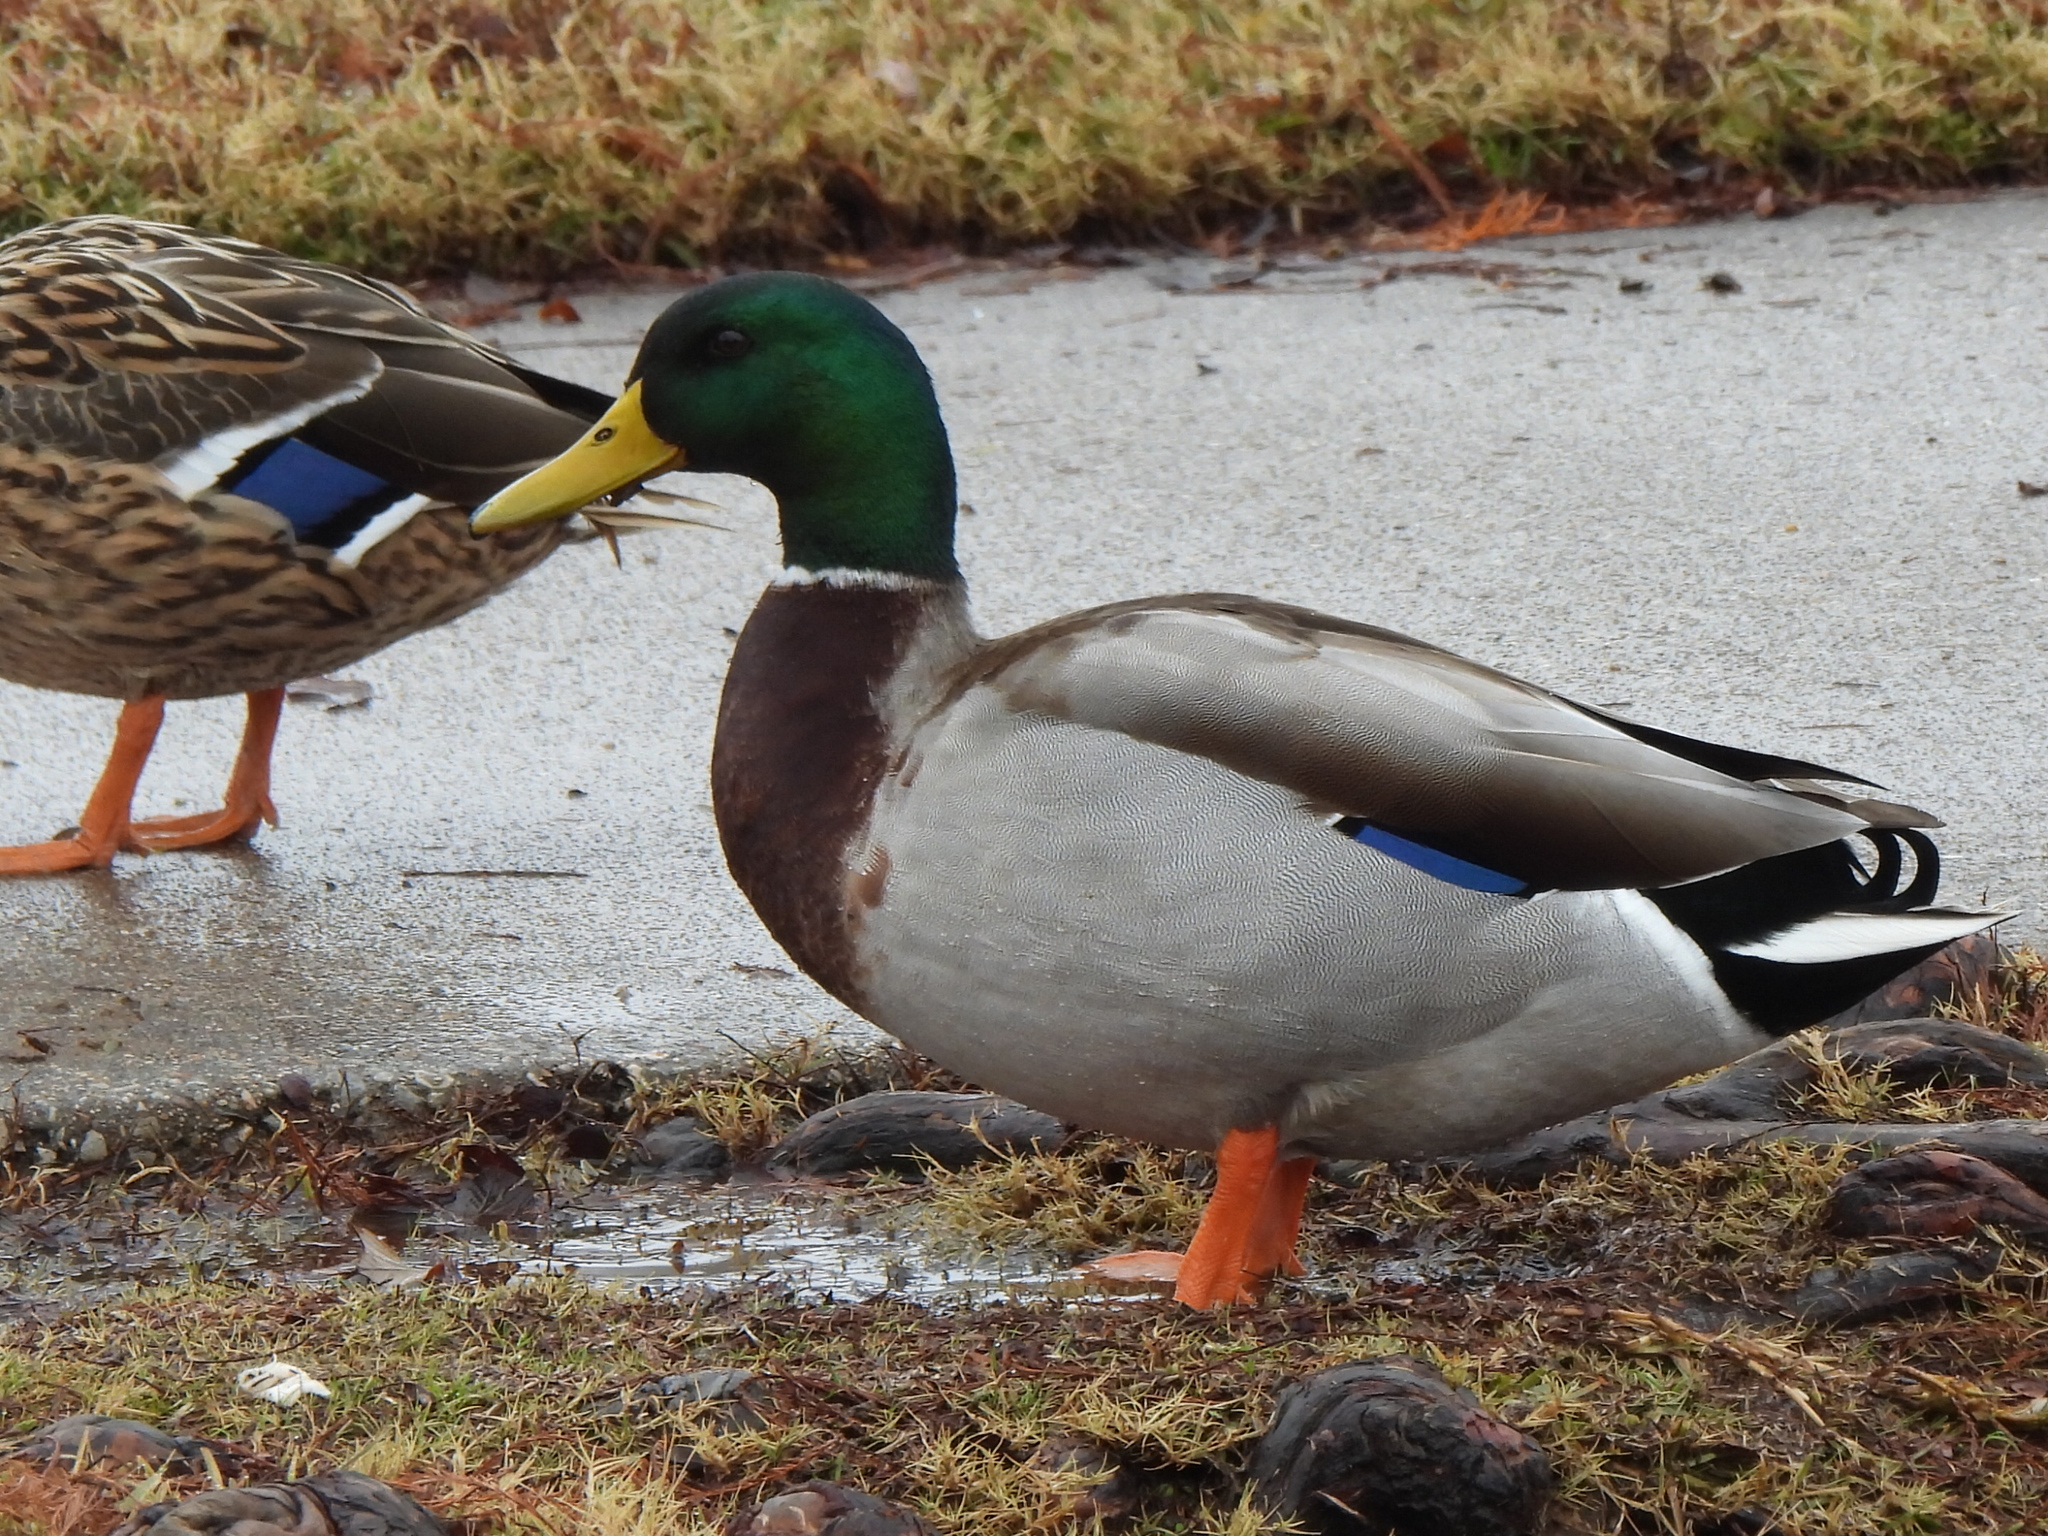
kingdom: Animalia
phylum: Chordata
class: Aves
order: Anseriformes
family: Anatidae
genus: Anas
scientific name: Anas platyrhynchos
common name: Mallard
